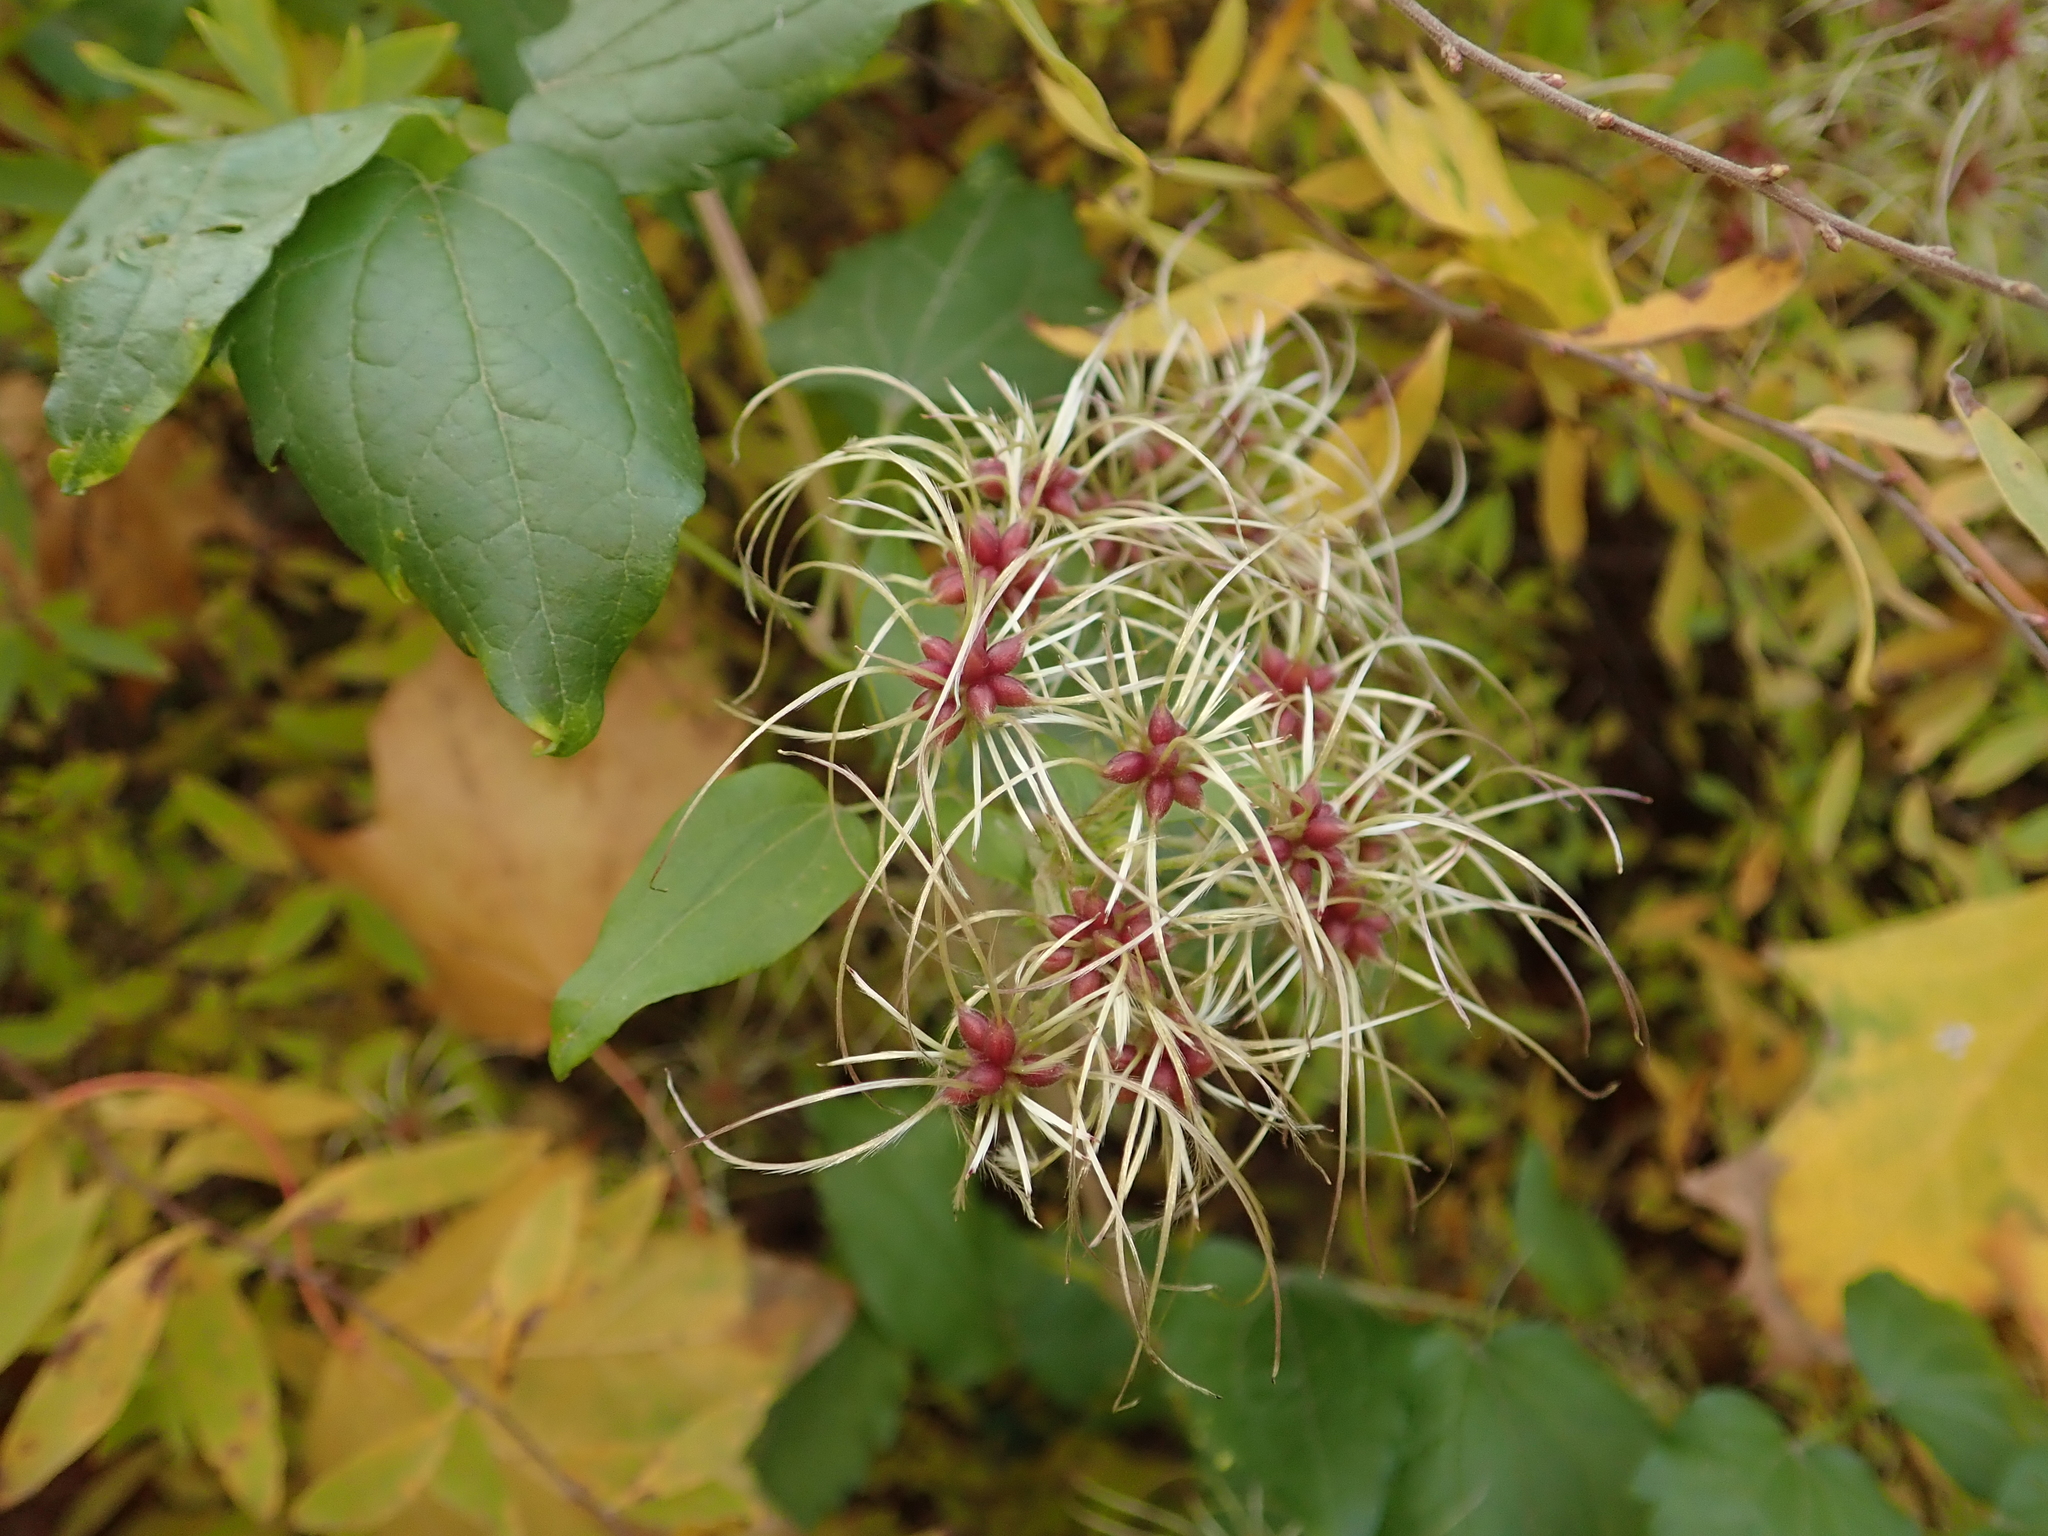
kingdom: Plantae
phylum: Tracheophyta
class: Magnoliopsida
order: Ranunculales
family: Ranunculaceae
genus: Clematis
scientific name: Clematis vitalba
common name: Evergreen clematis
